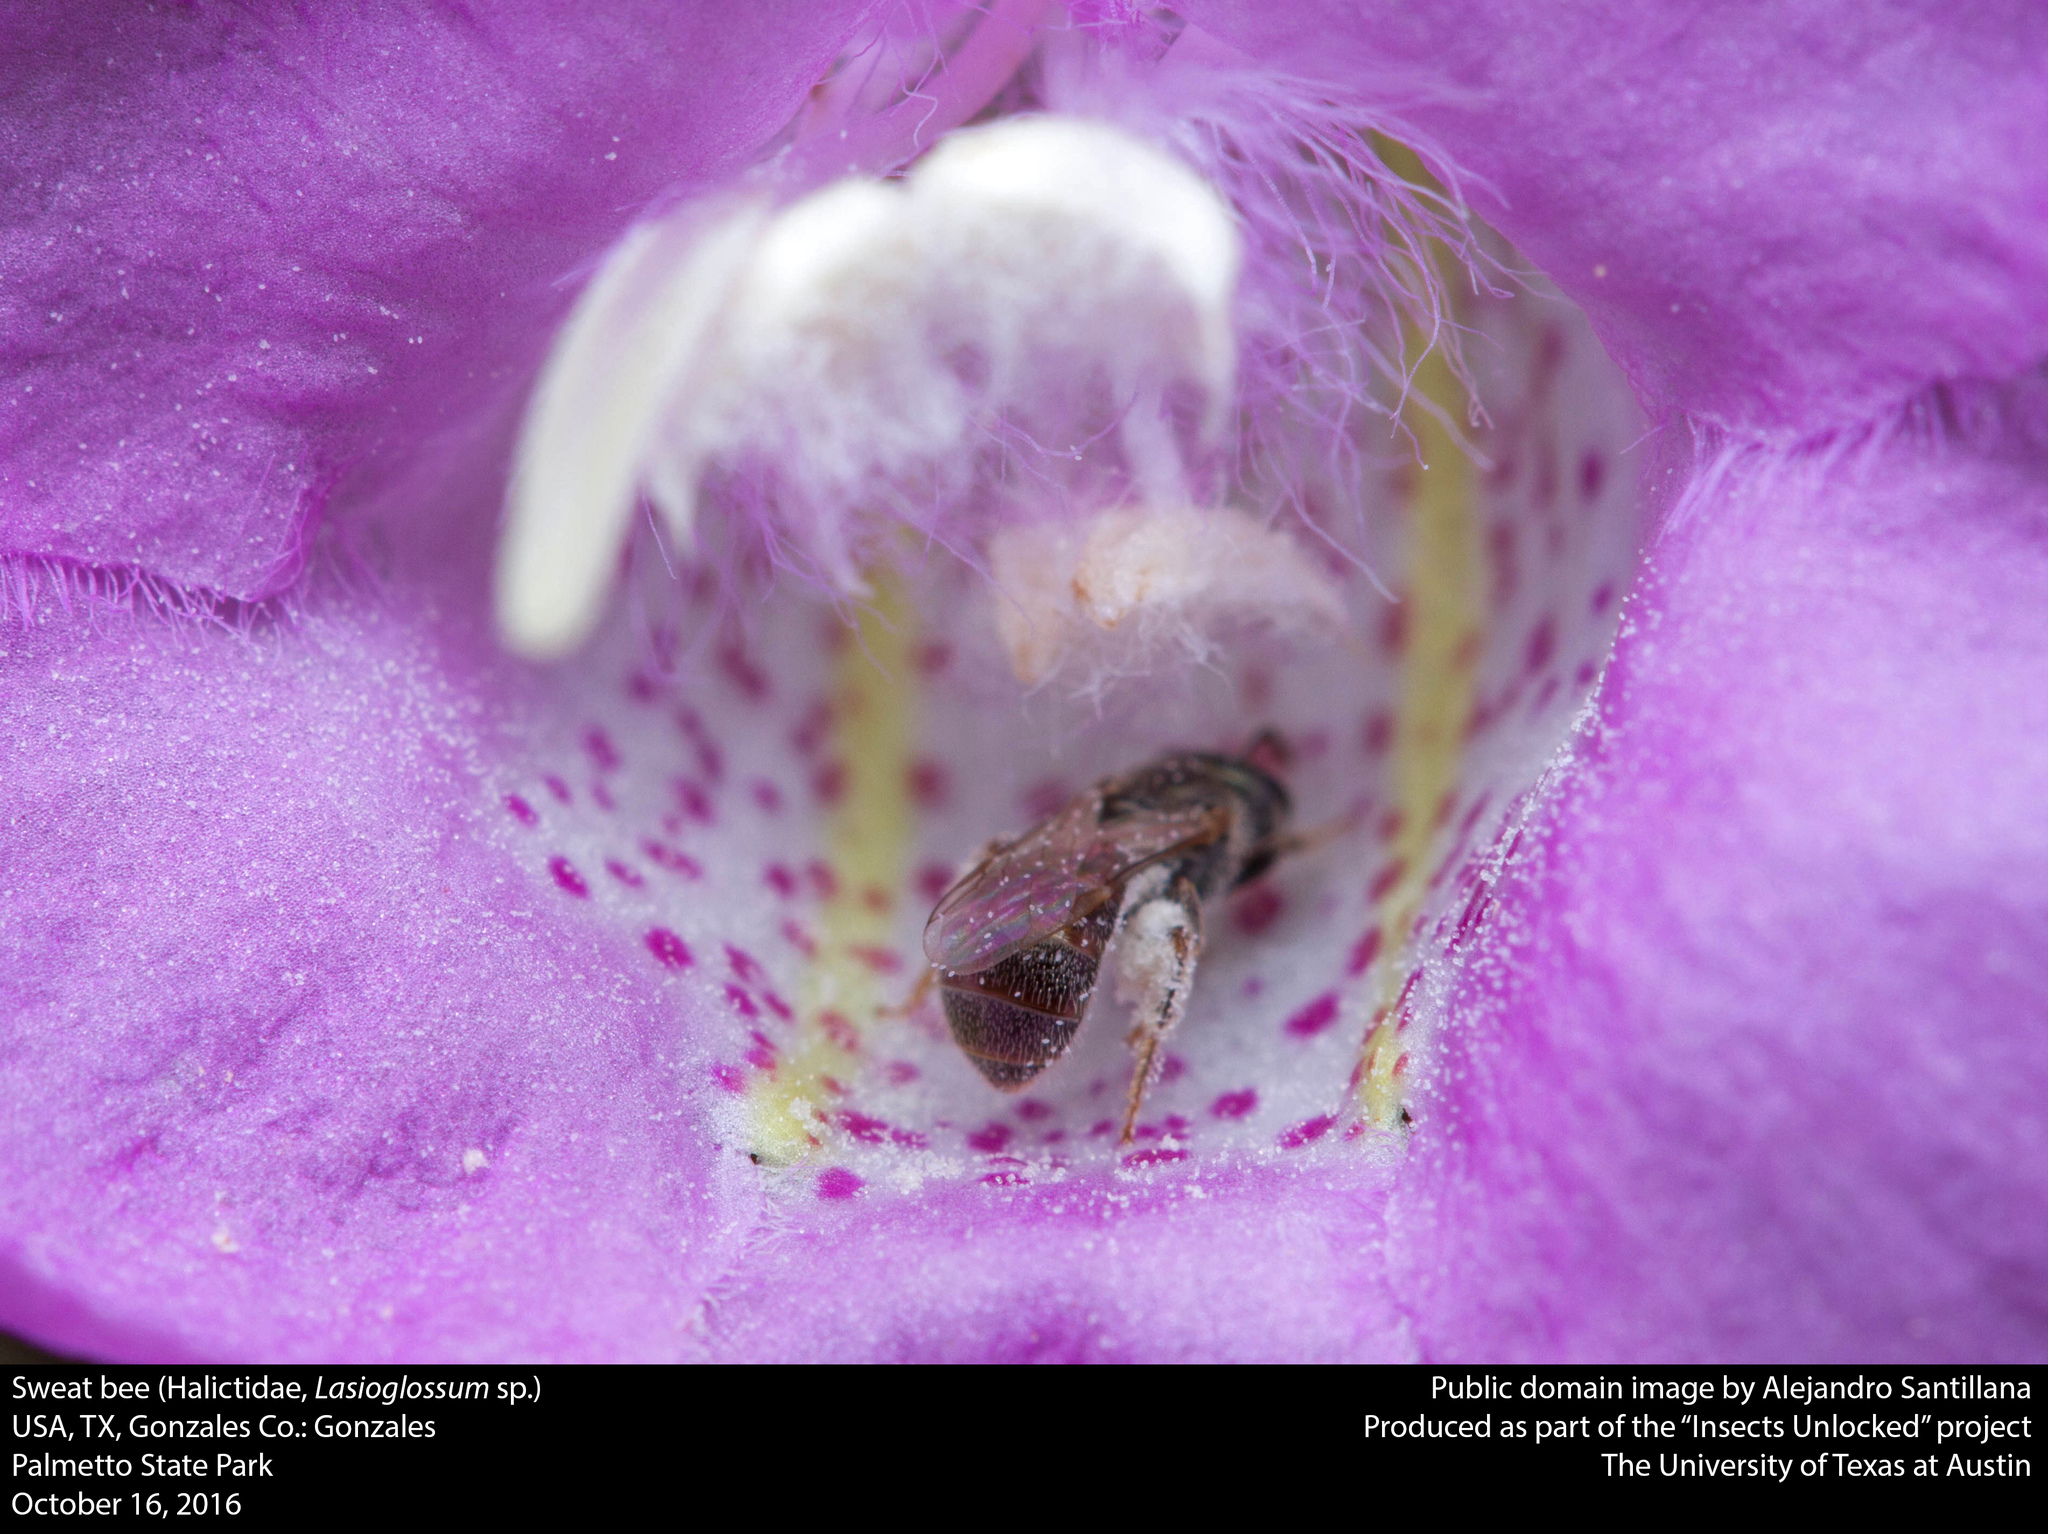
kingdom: Animalia
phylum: Arthropoda
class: Insecta
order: Hymenoptera
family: Halictidae
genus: Lasioglossum
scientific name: Lasioglossum imitatum
